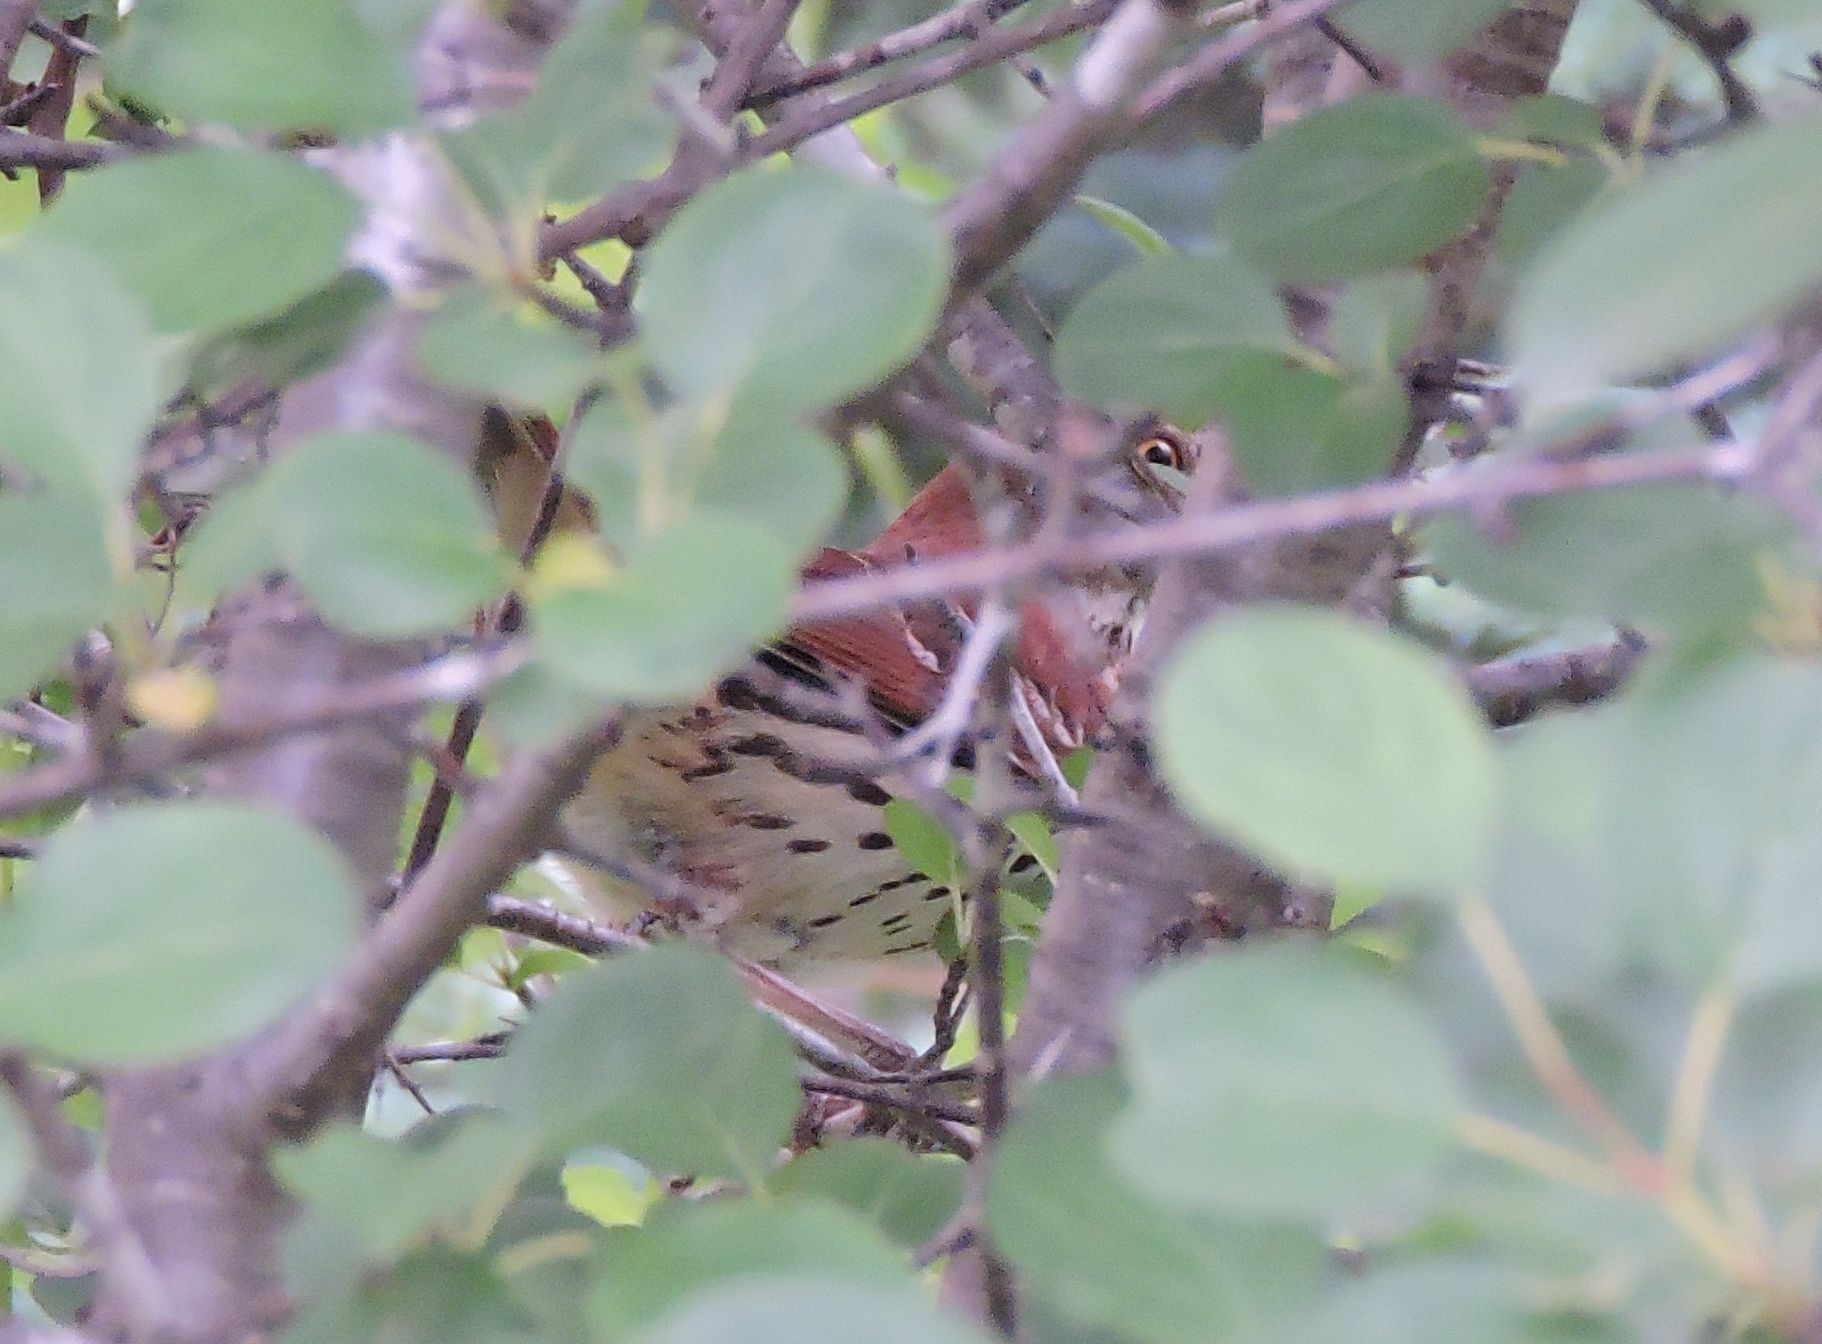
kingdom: Animalia
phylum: Chordata
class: Aves
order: Passeriformes
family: Mimidae
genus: Toxostoma
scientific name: Toxostoma rufum
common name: Brown thrasher
